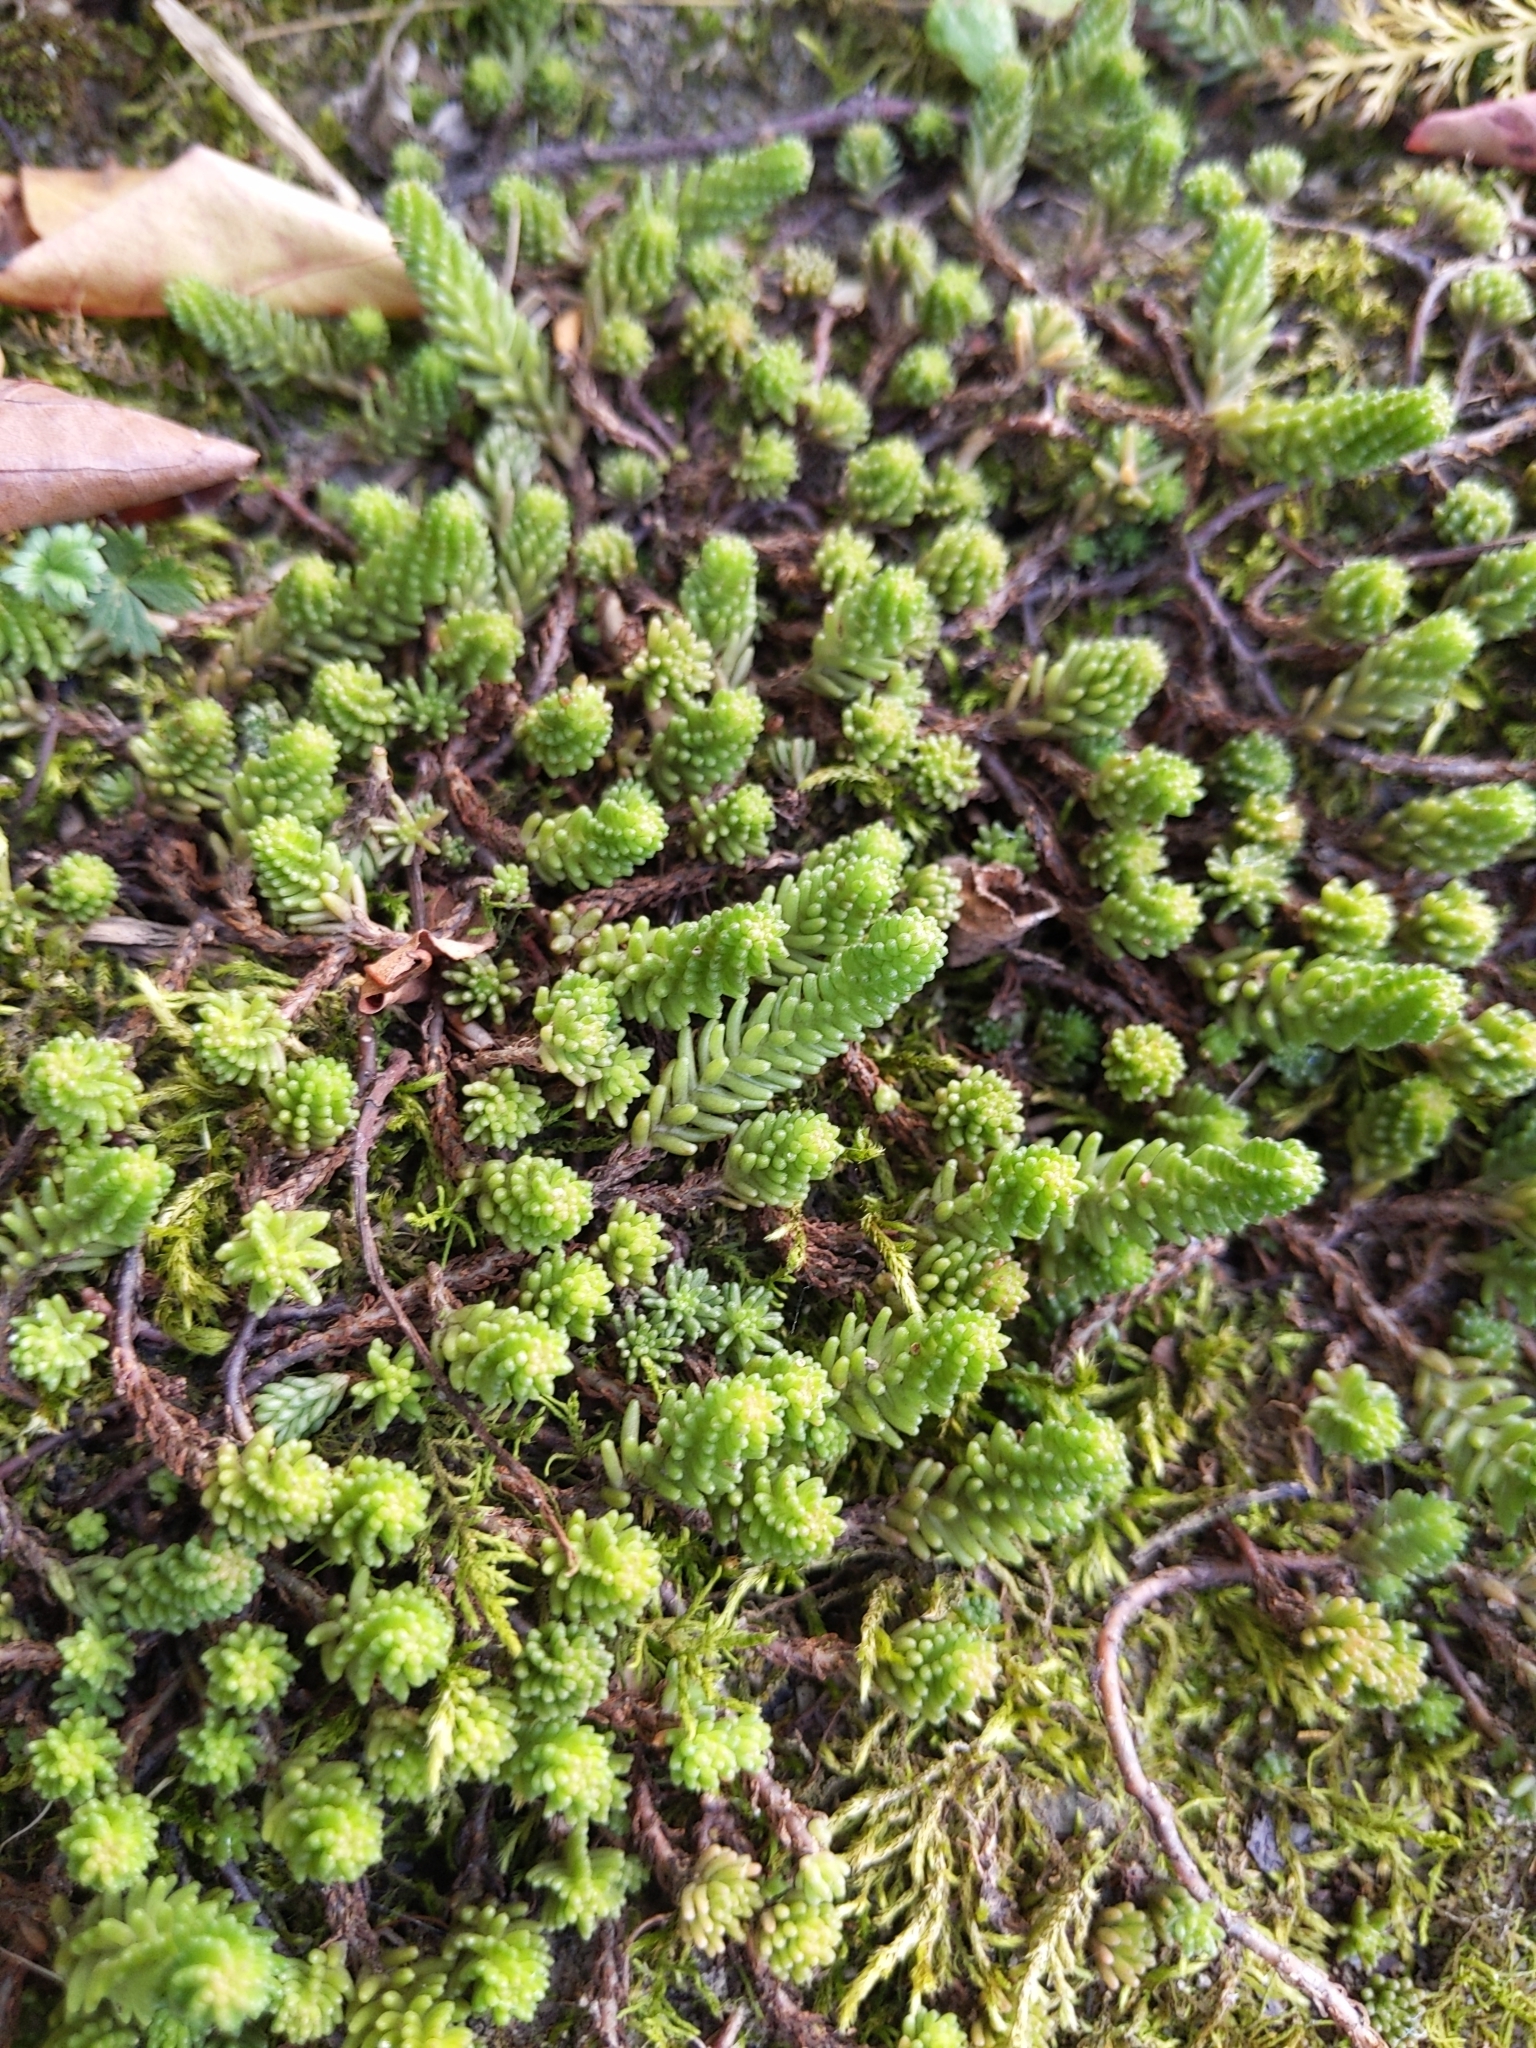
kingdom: Plantae
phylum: Tracheophyta
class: Magnoliopsida
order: Saxifragales
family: Crassulaceae
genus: Sedum
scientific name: Sedum sexangulare
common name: Tasteless stonecrop
